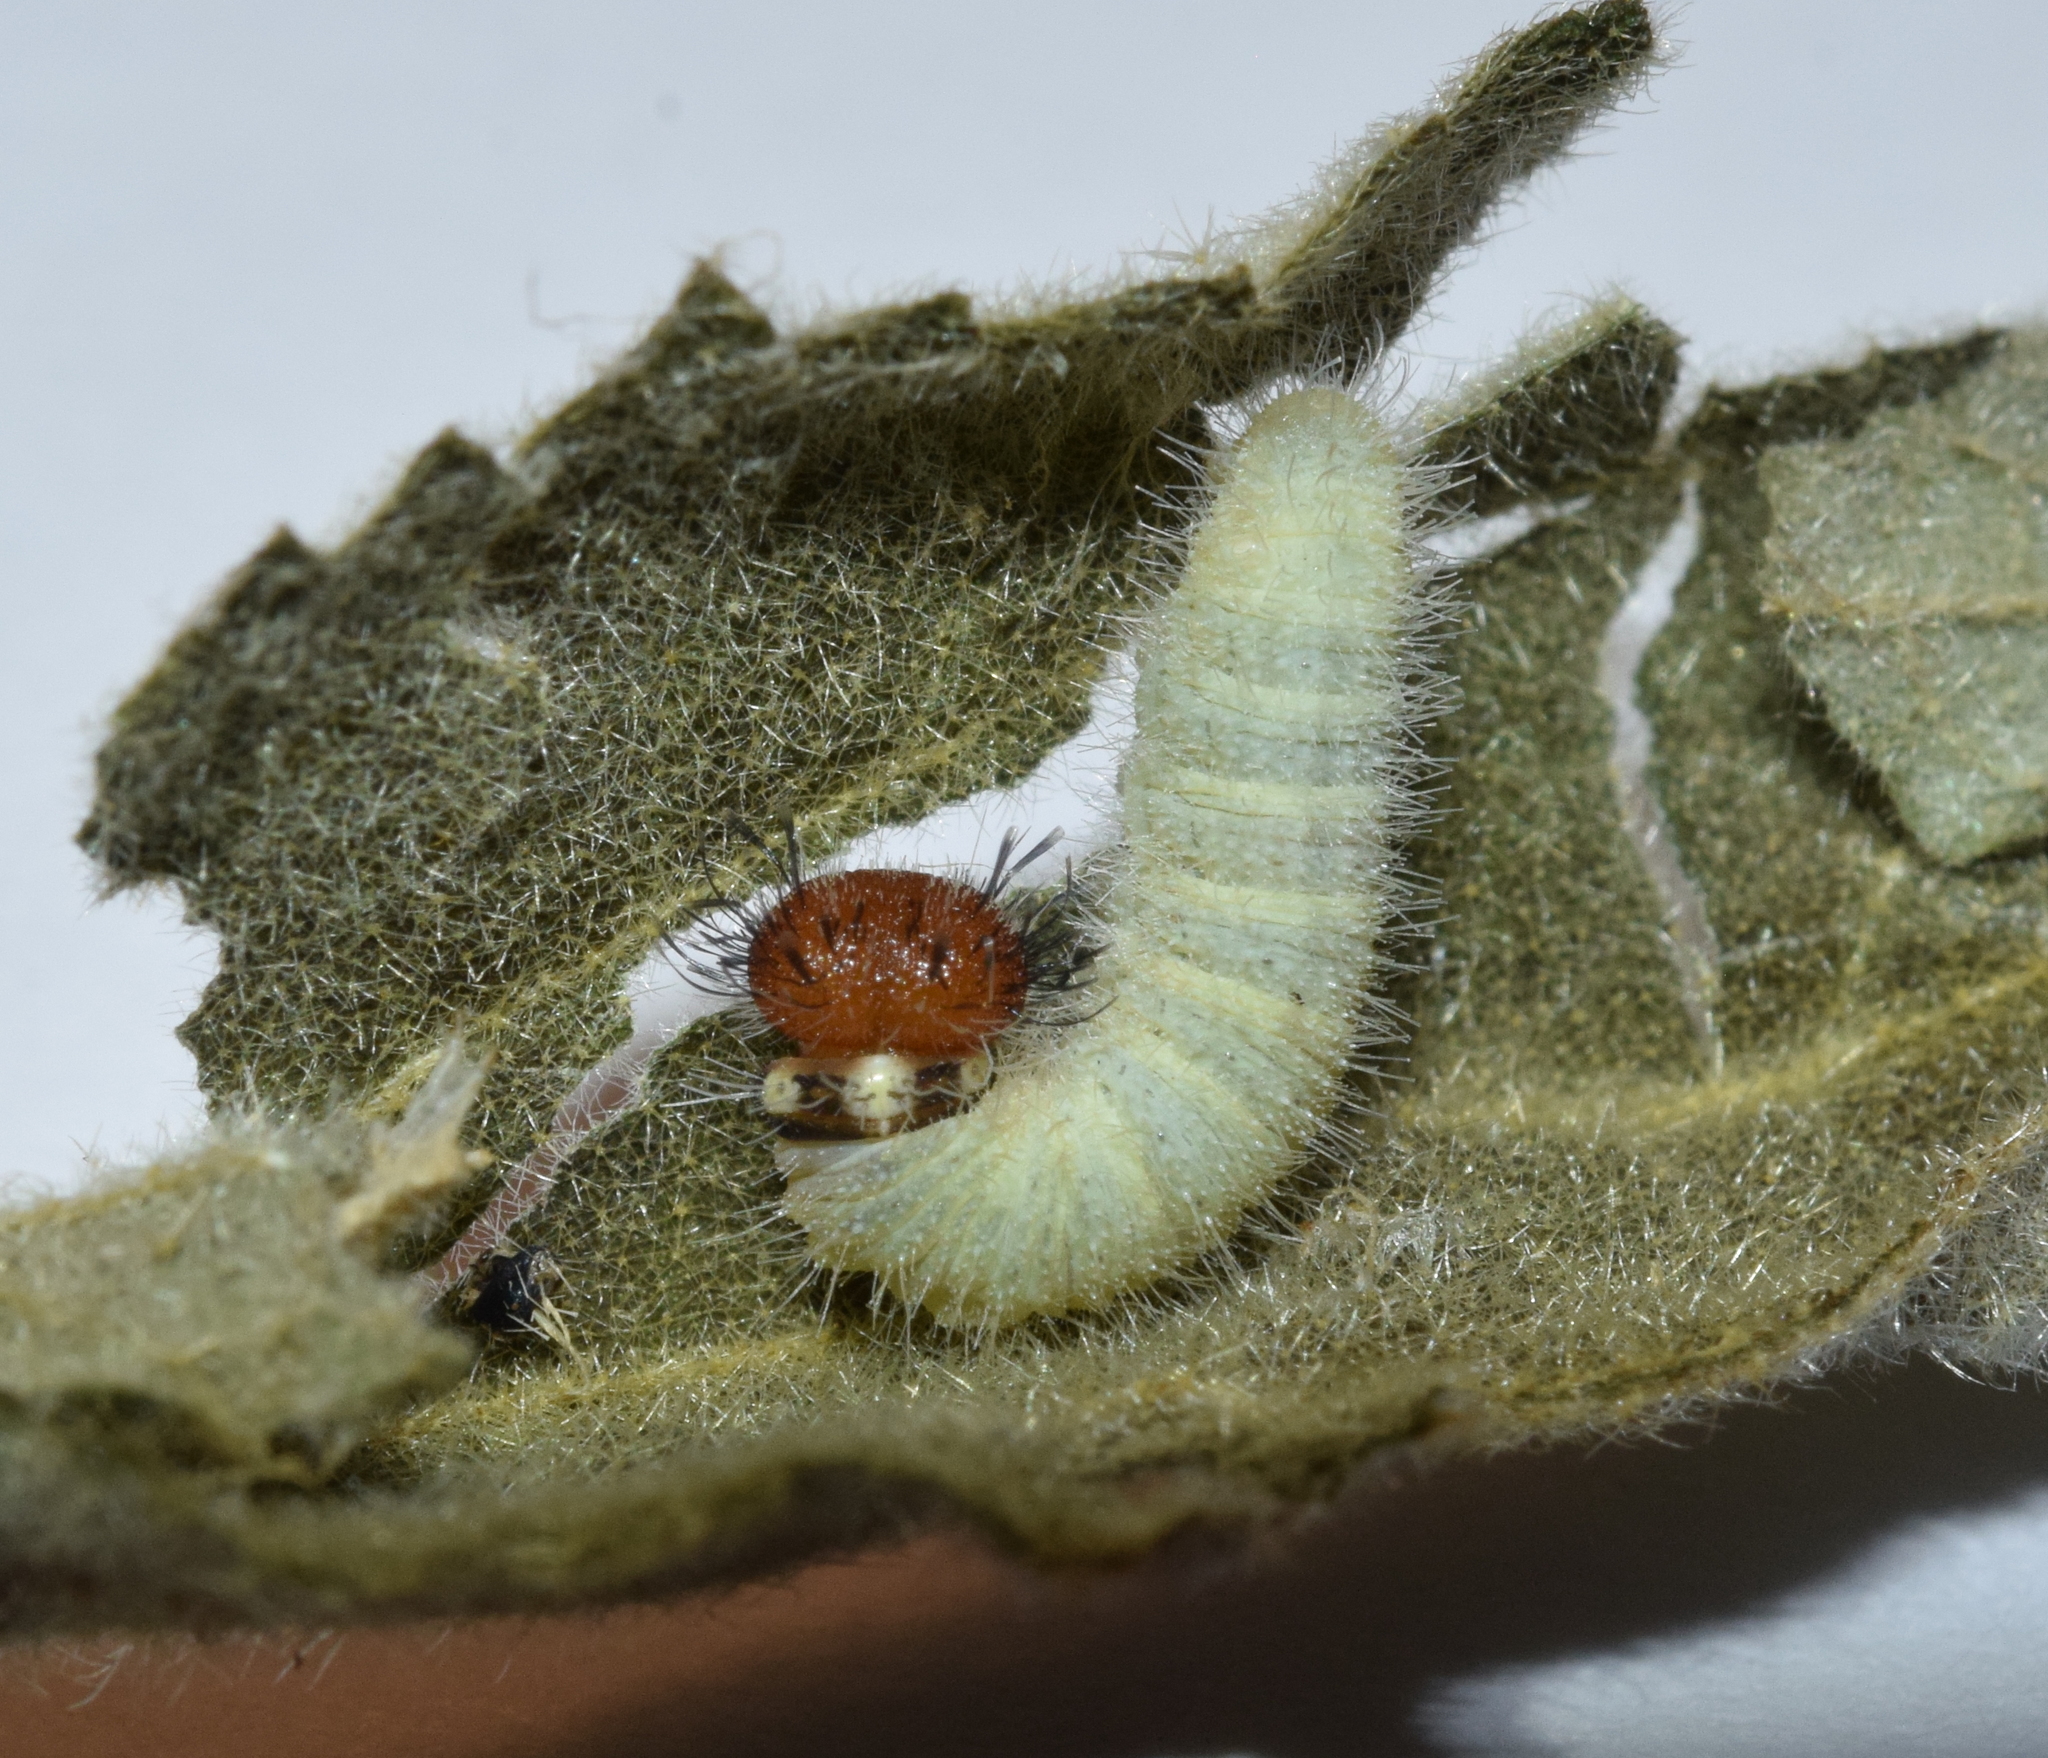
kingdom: Animalia
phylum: Arthropoda
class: Insecta
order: Lepidoptera
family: Hesperiidae
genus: Spialia
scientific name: Spialia spio
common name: Mountain sandman
